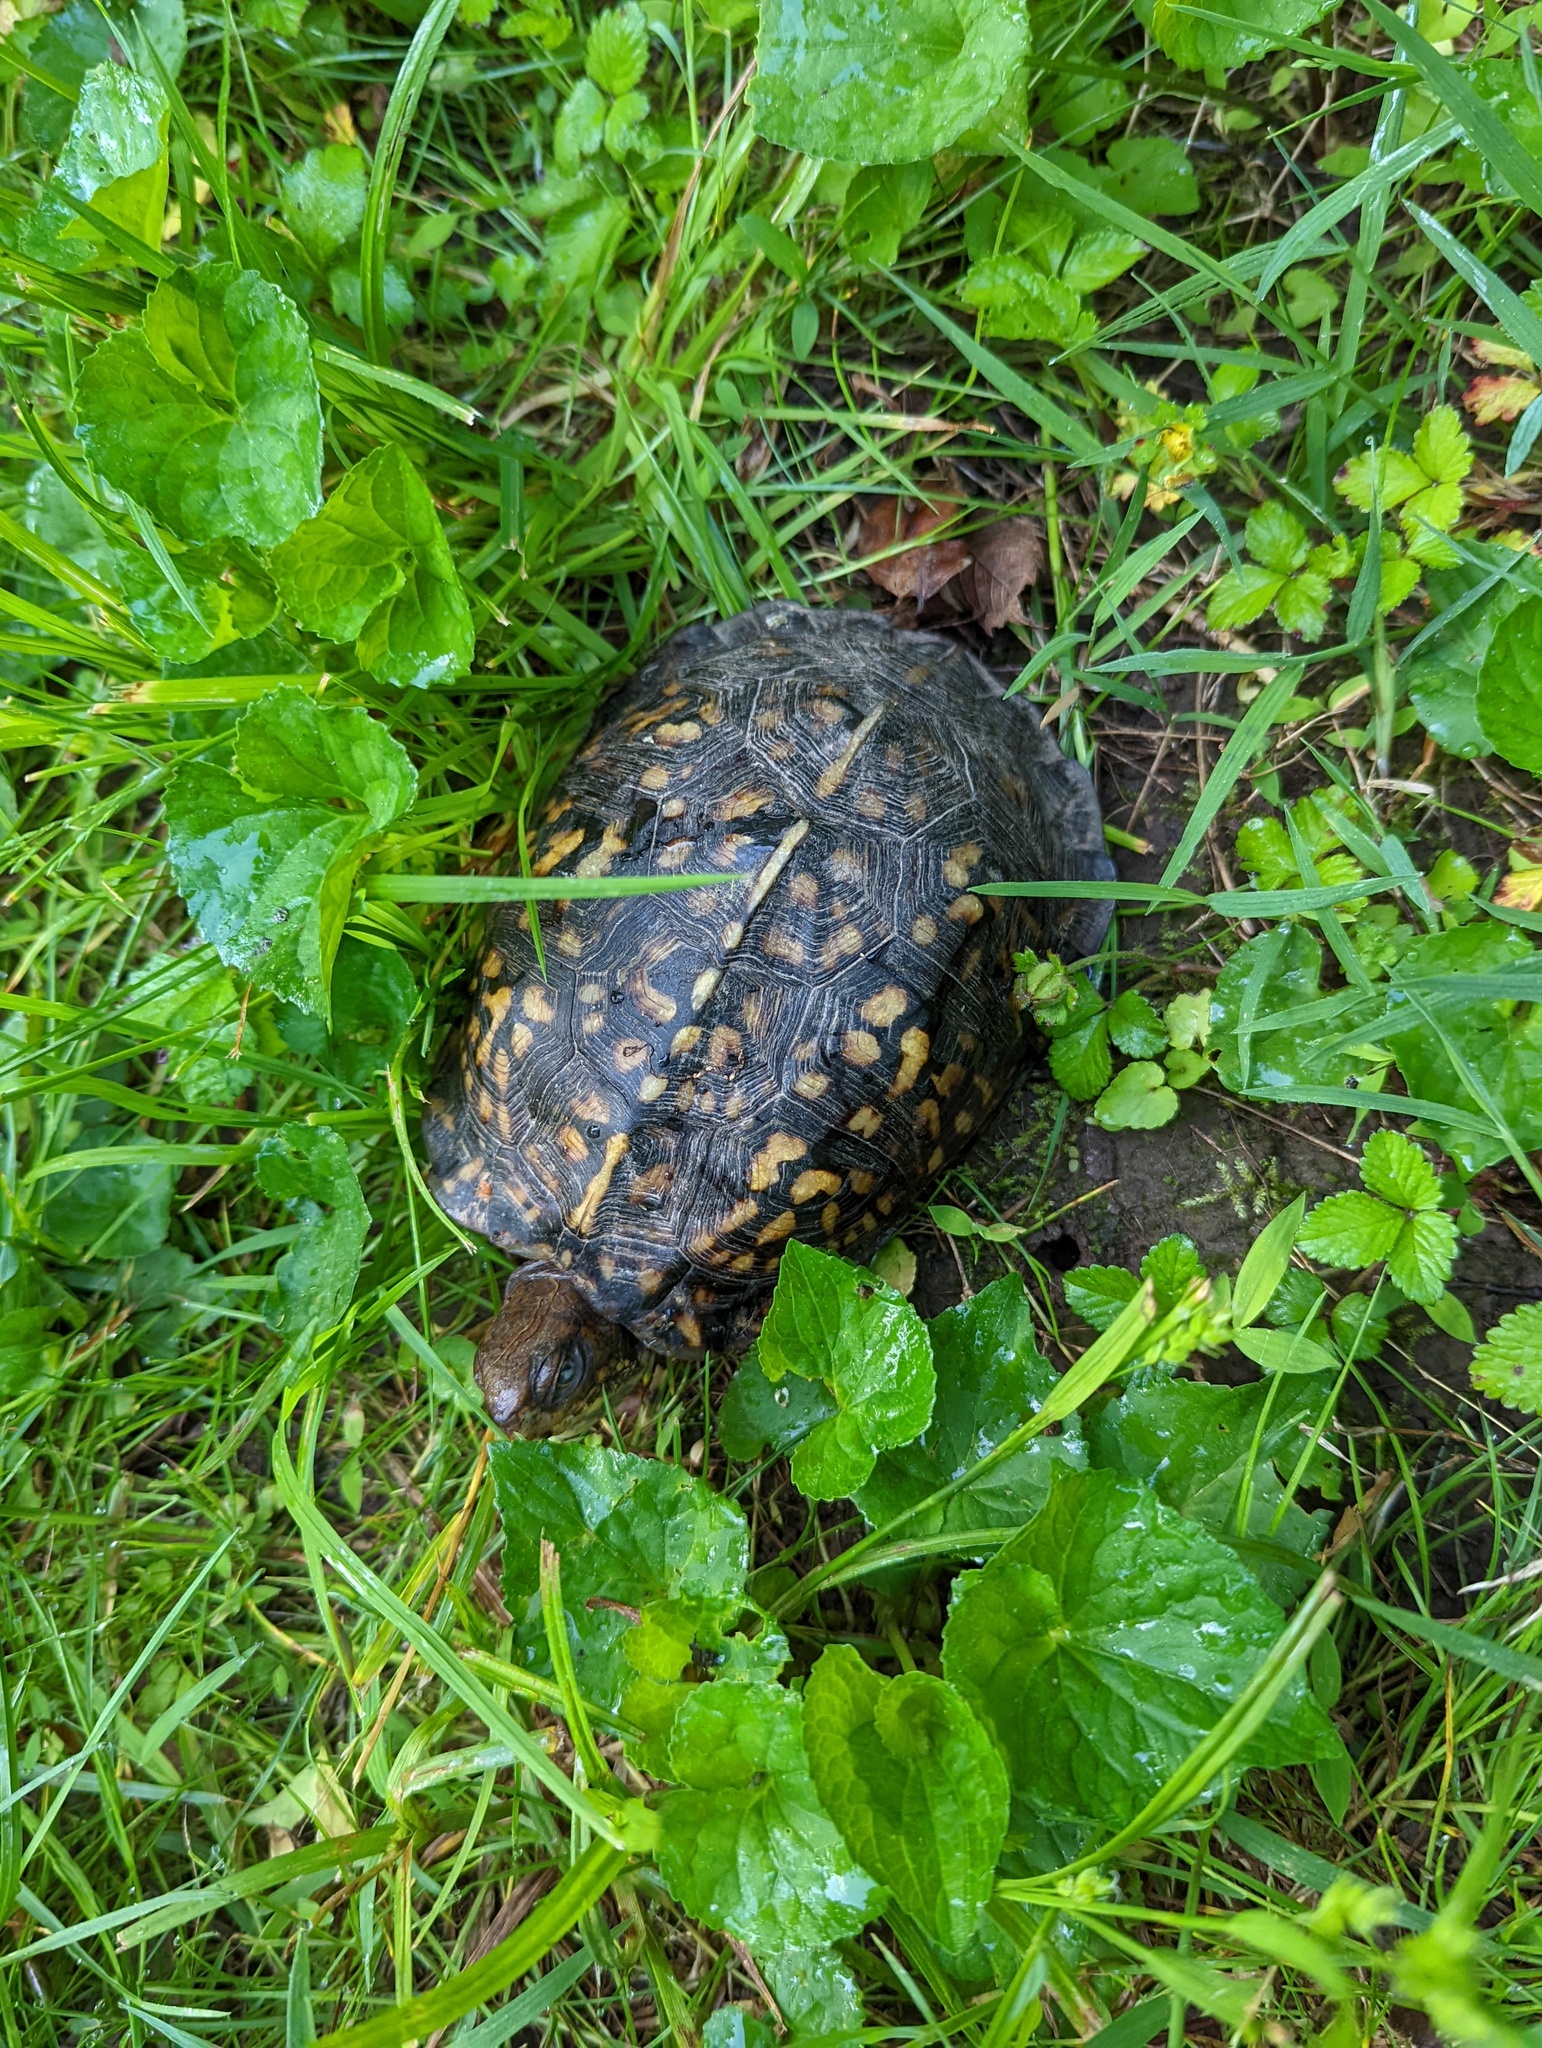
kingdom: Animalia
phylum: Chordata
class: Testudines
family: Emydidae
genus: Terrapene
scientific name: Terrapene carolina
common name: Common box turtle
